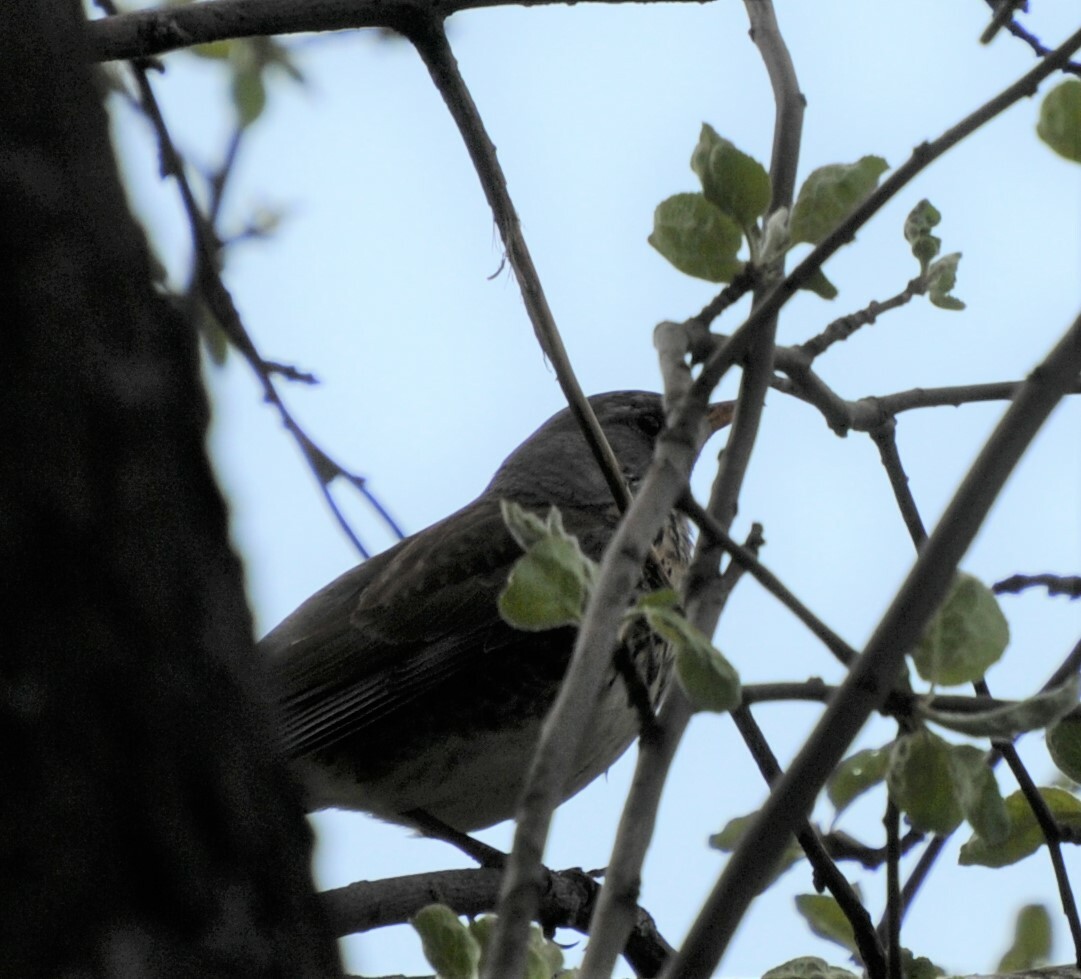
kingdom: Animalia
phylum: Chordata
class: Aves
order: Passeriformes
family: Turdidae
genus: Turdus
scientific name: Turdus pilaris
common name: Fieldfare
